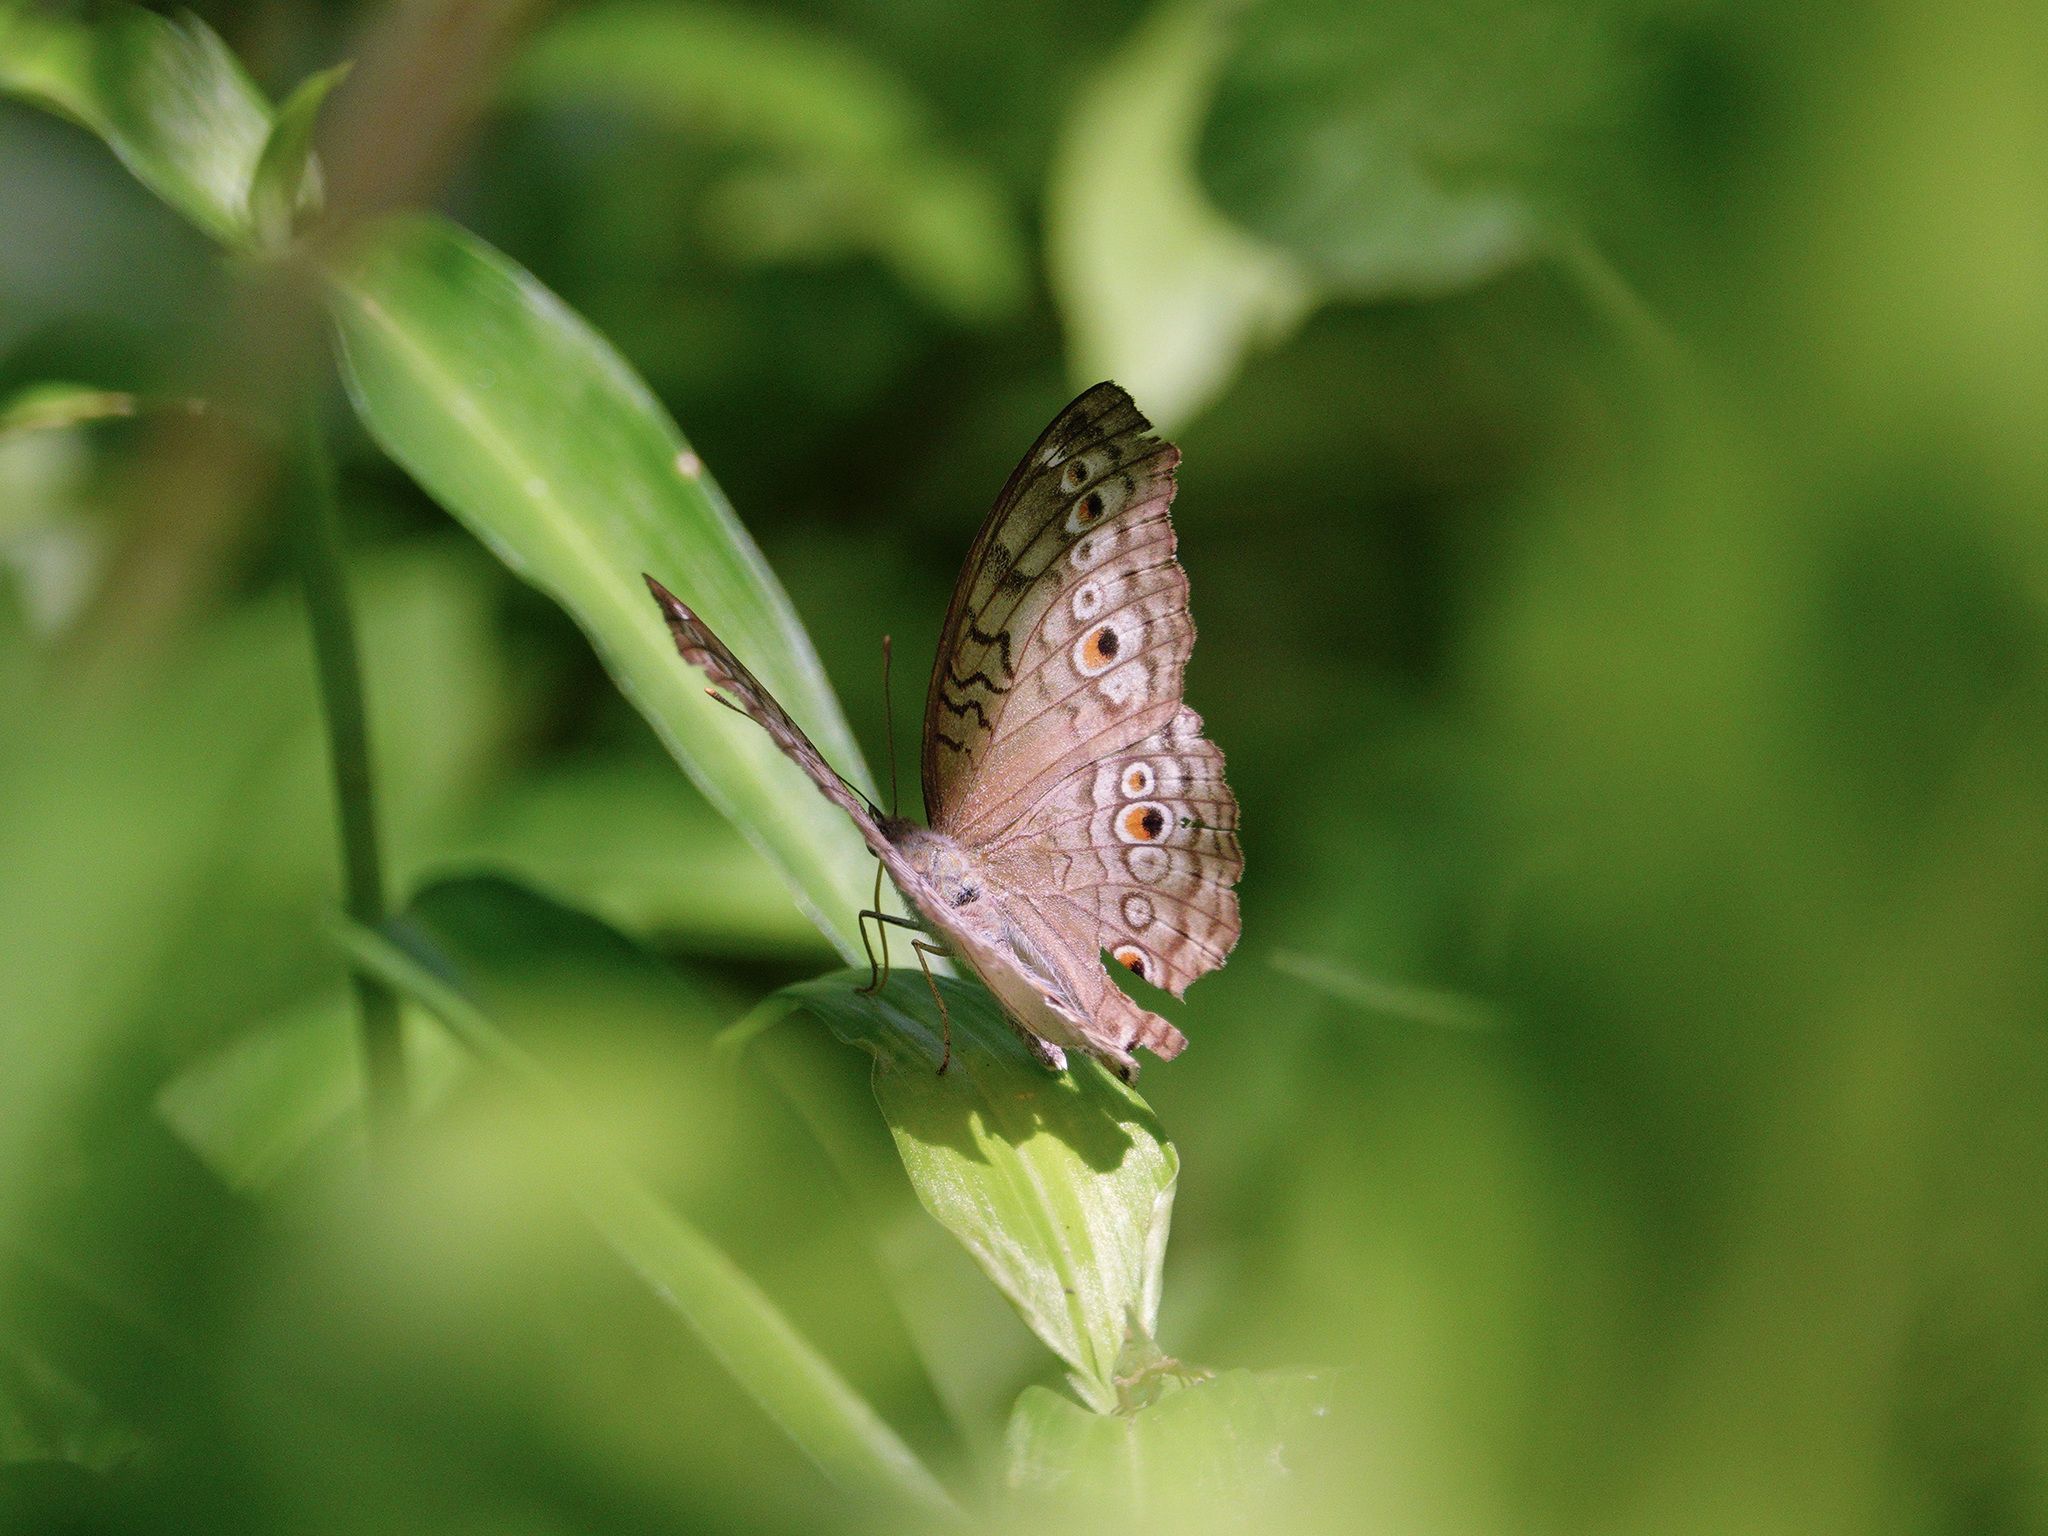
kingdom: Animalia
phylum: Arthropoda
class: Insecta
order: Lepidoptera
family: Nymphalidae
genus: Junonia
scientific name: Junonia atlites
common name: Grey pansy
